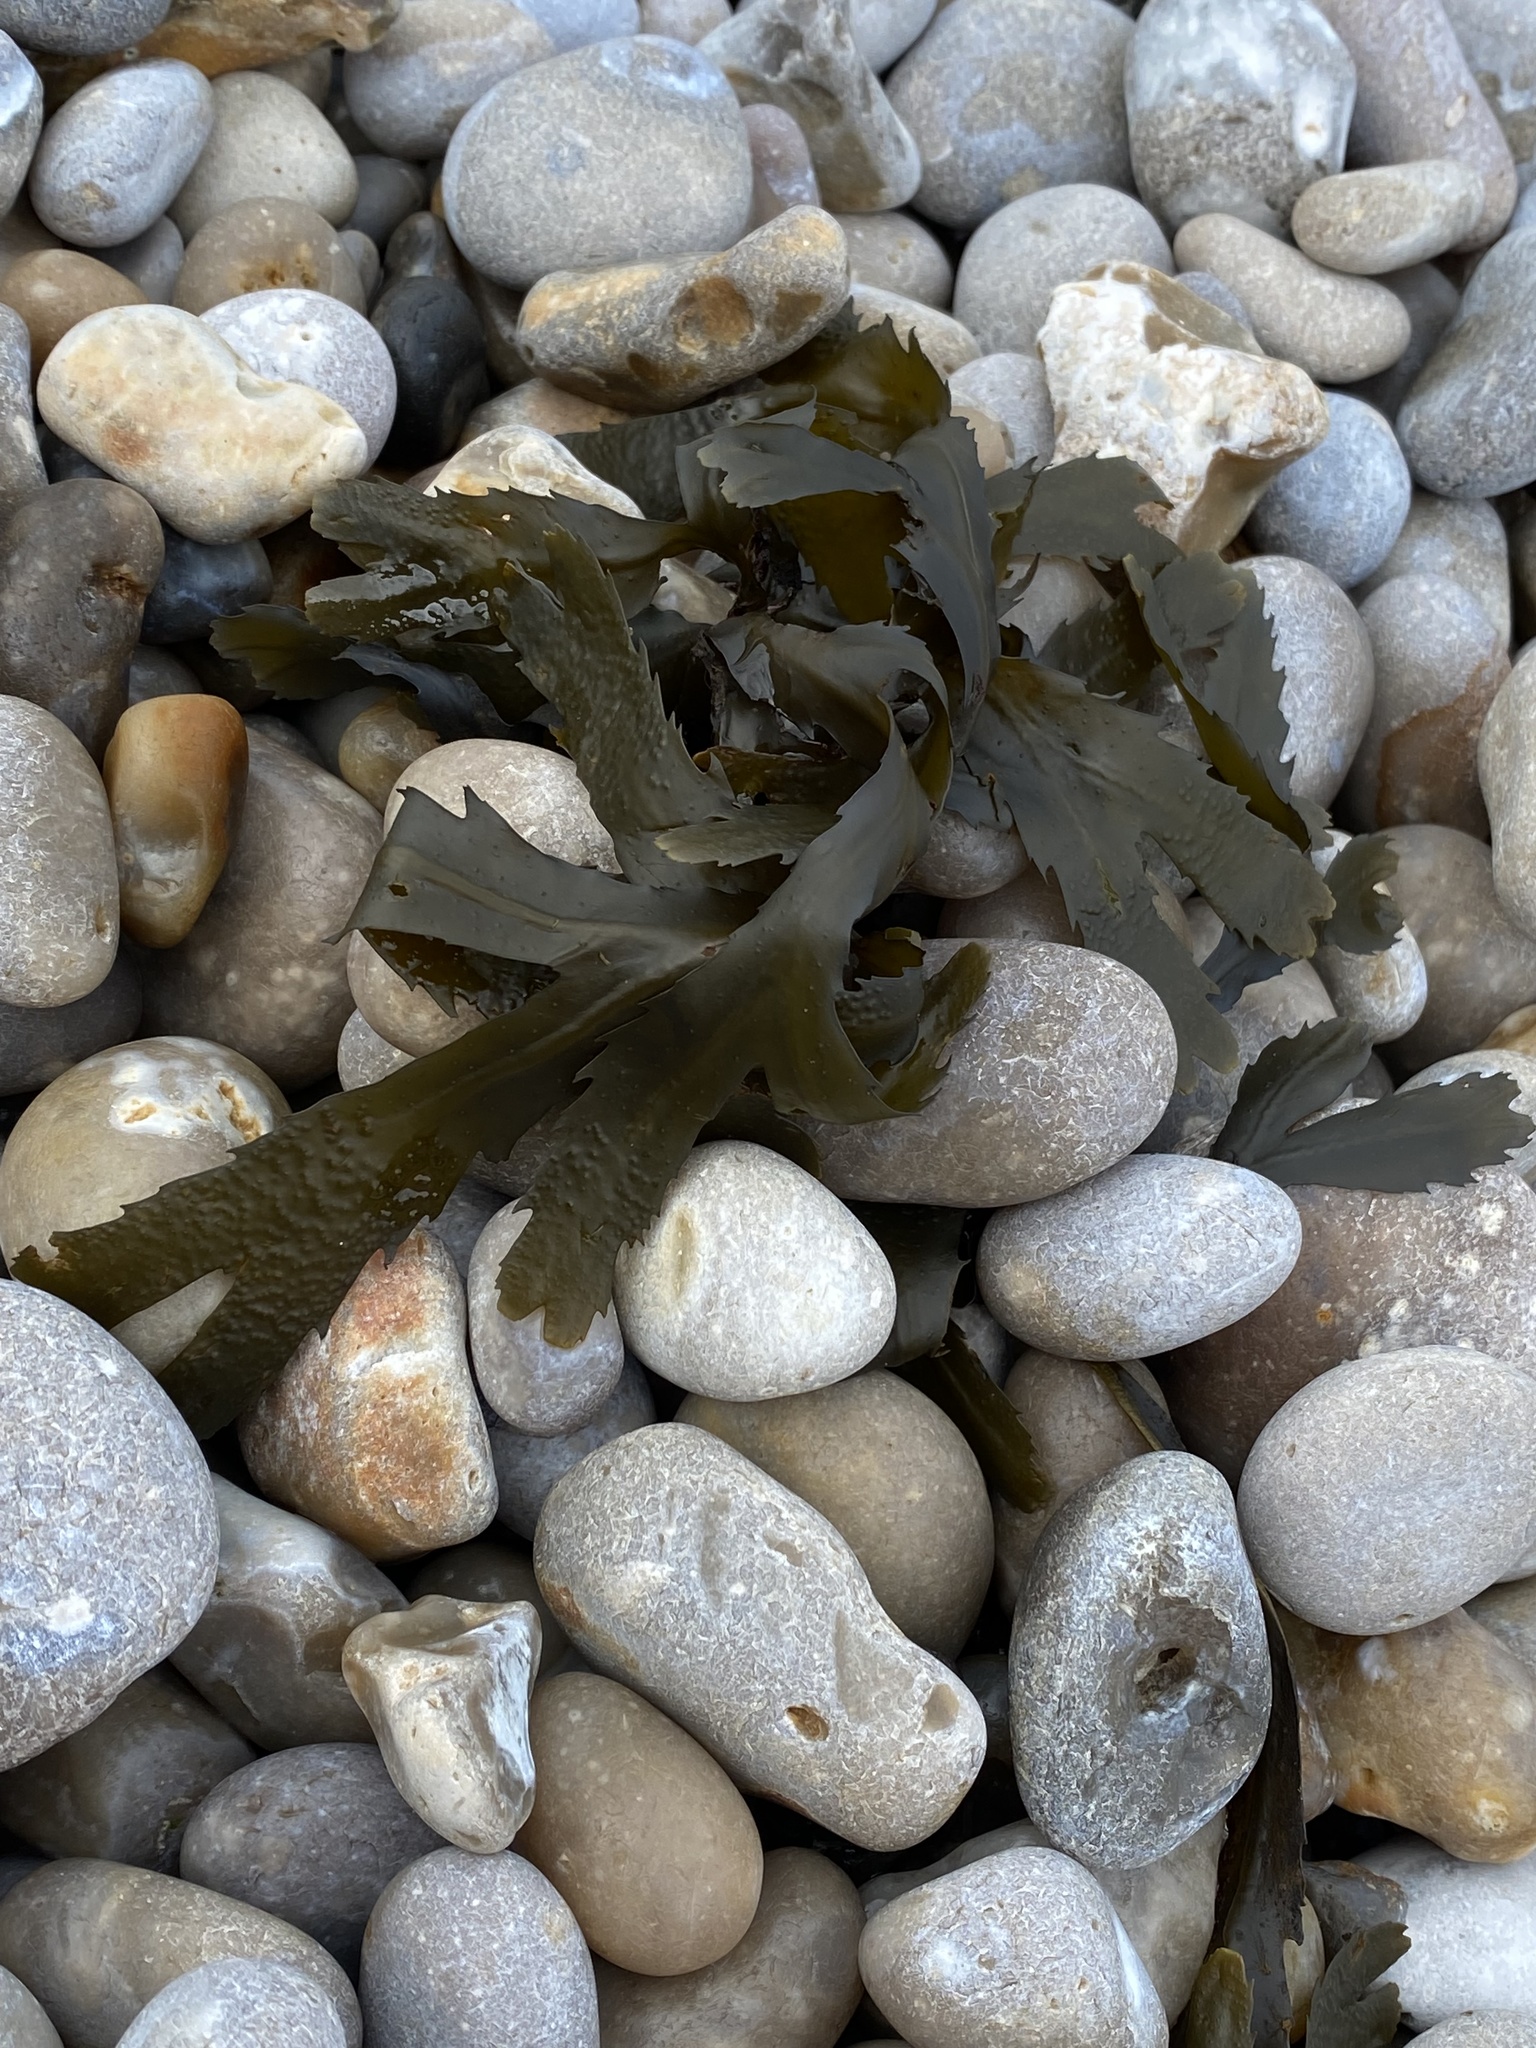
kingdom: Chromista
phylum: Ochrophyta
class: Phaeophyceae
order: Fucales
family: Fucaceae
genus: Fucus
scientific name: Fucus serratus
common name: Toothed wrack
